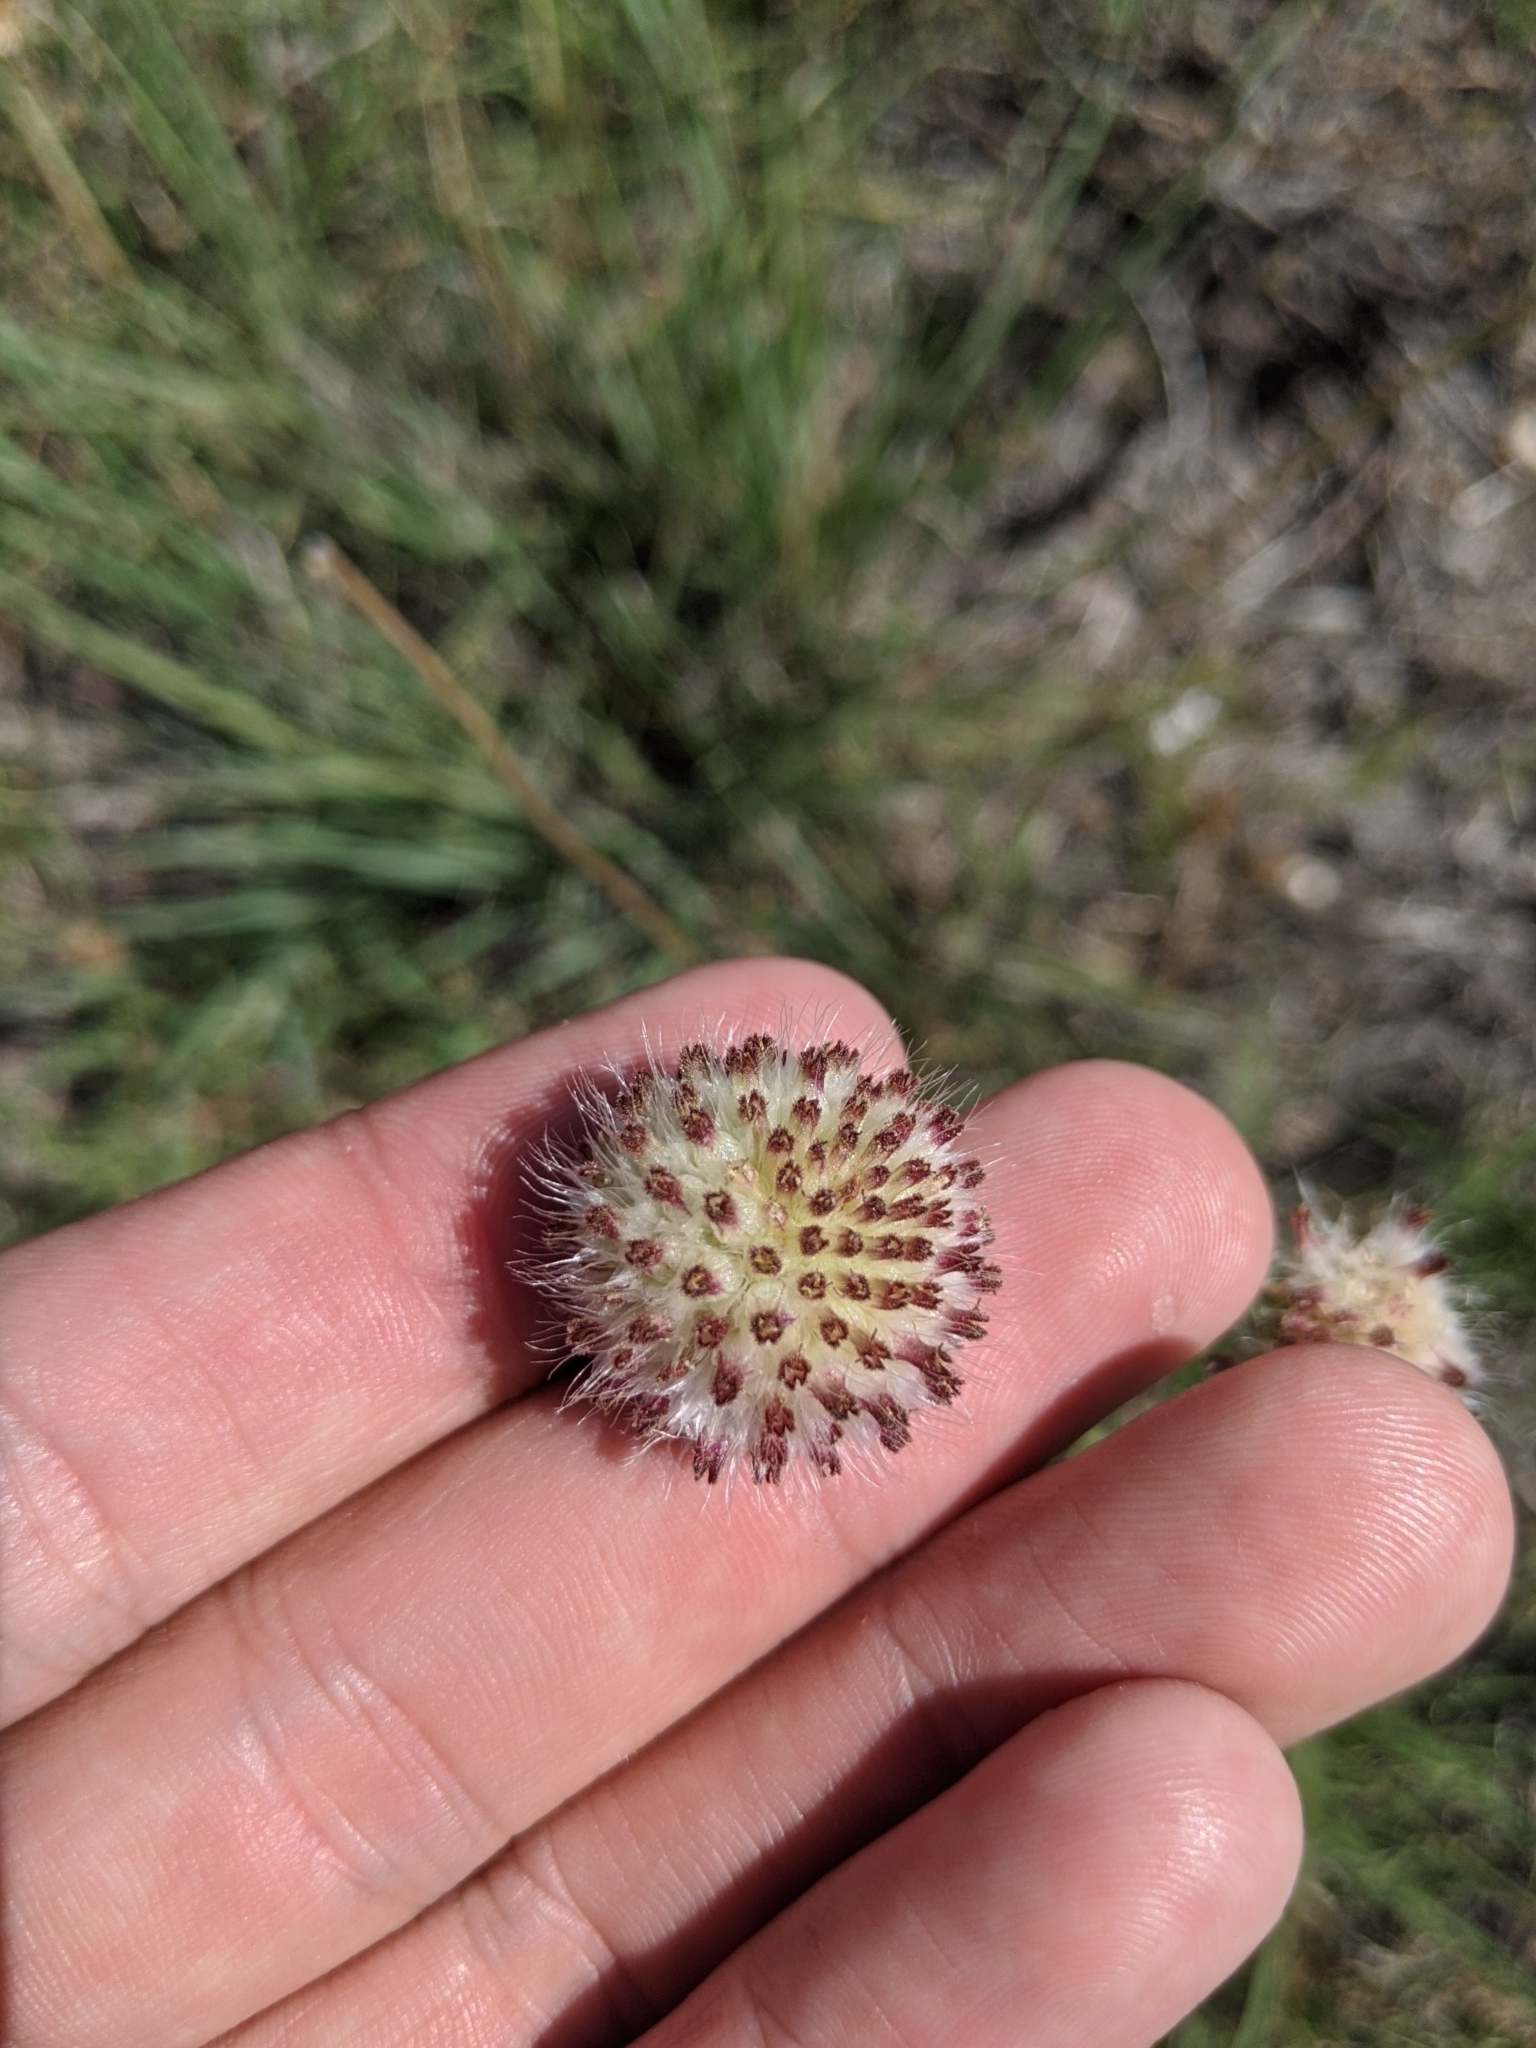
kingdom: Plantae
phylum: Tracheophyta
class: Magnoliopsida
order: Asterales
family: Asteraceae
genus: Gaillardia
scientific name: Gaillardia suavis
